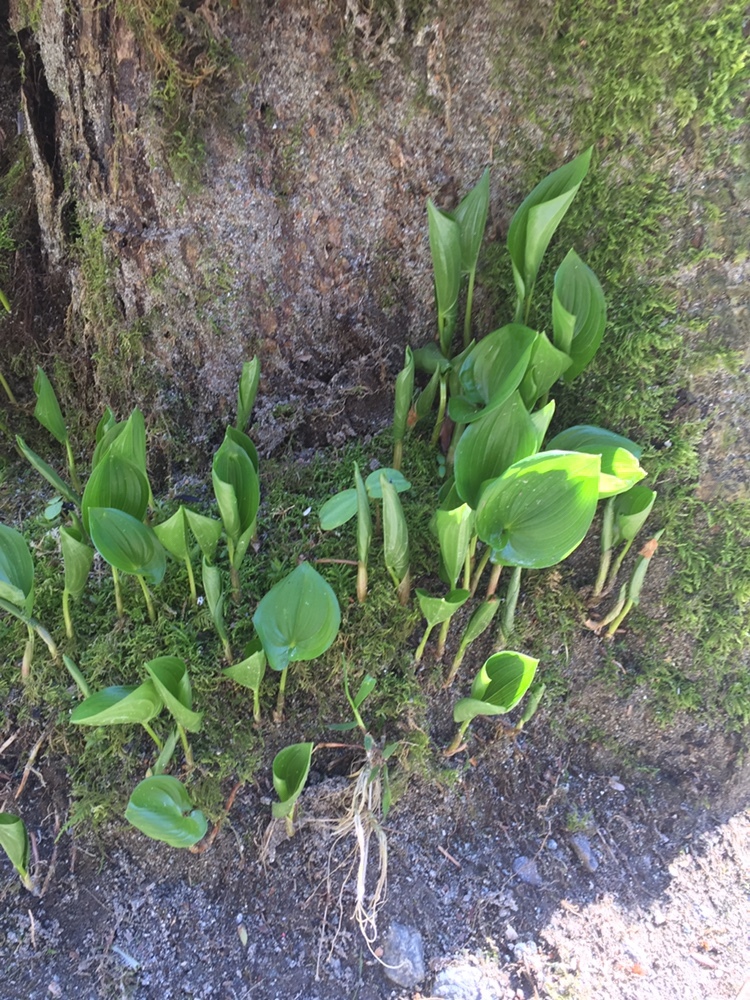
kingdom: Plantae
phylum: Tracheophyta
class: Liliopsida
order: Asparagales
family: Asparagaceae
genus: Maianthemum
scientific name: Maianthemum dilatatum
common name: False lily-of-the-valley
